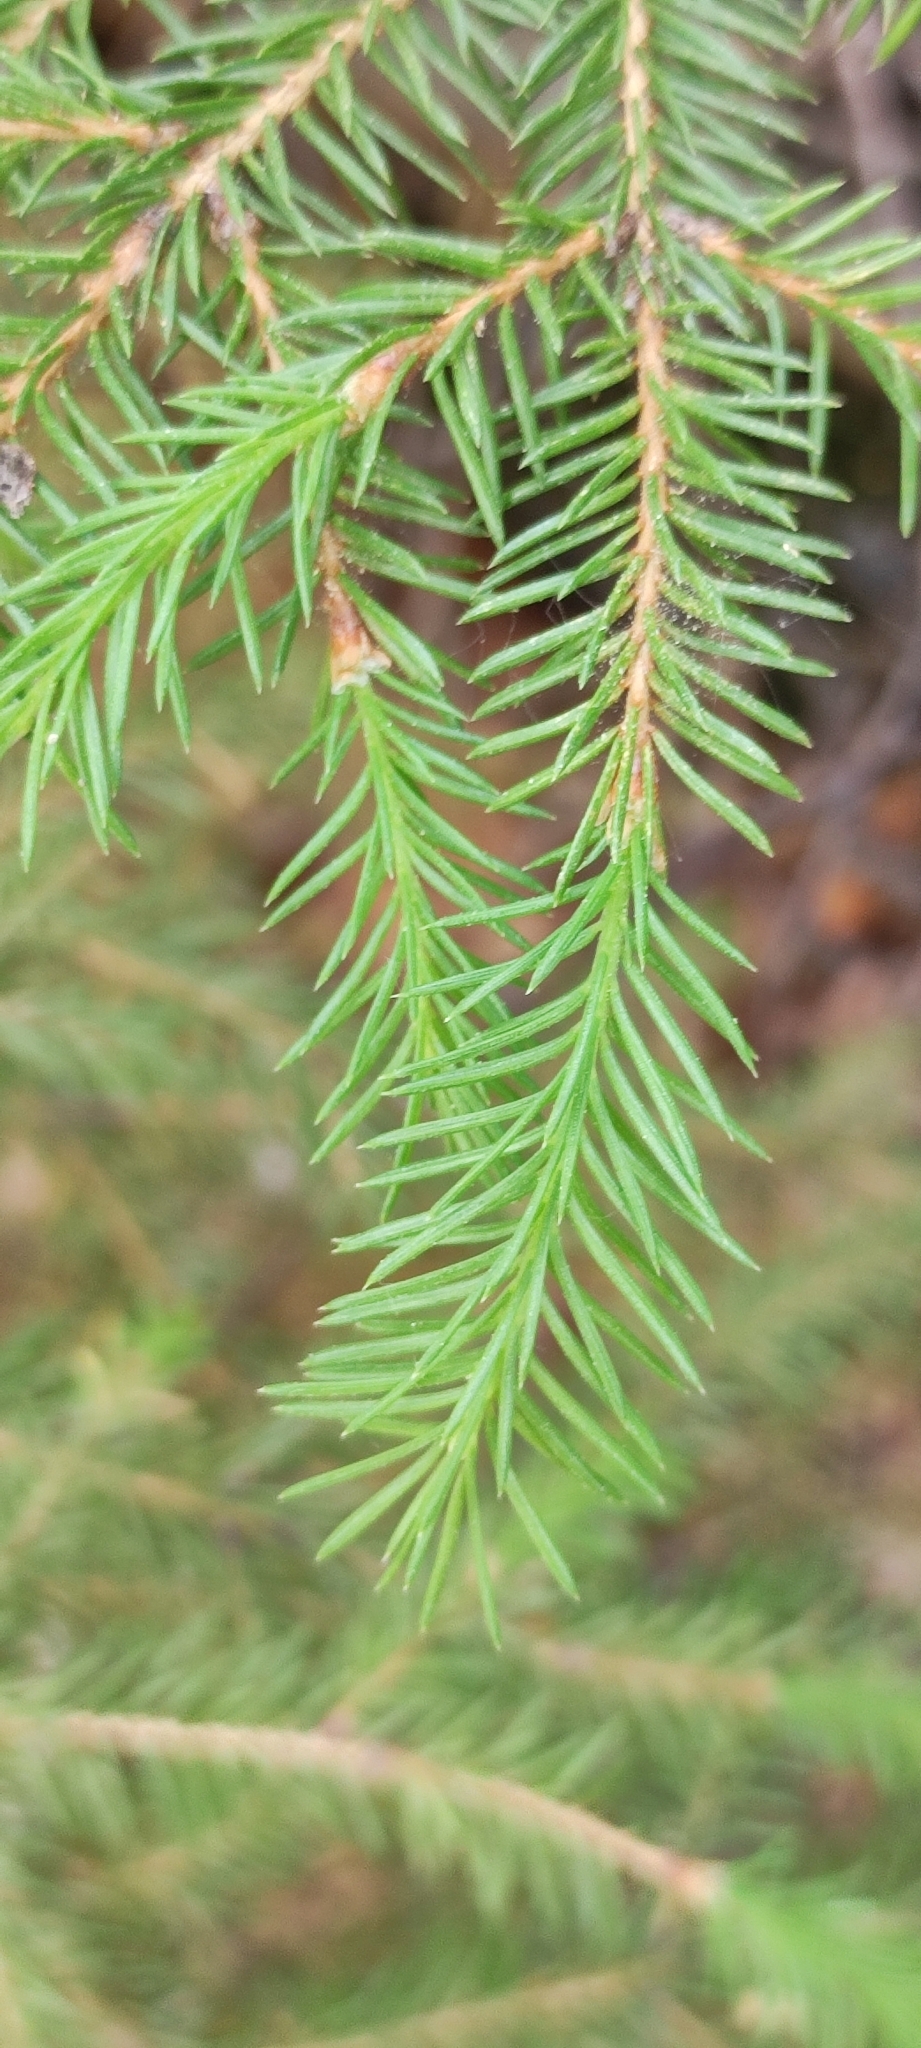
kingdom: Plantae
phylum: Tracheophyta
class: Pinopsida
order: Pinales
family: Pinaceae
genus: Picea
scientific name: Picea
